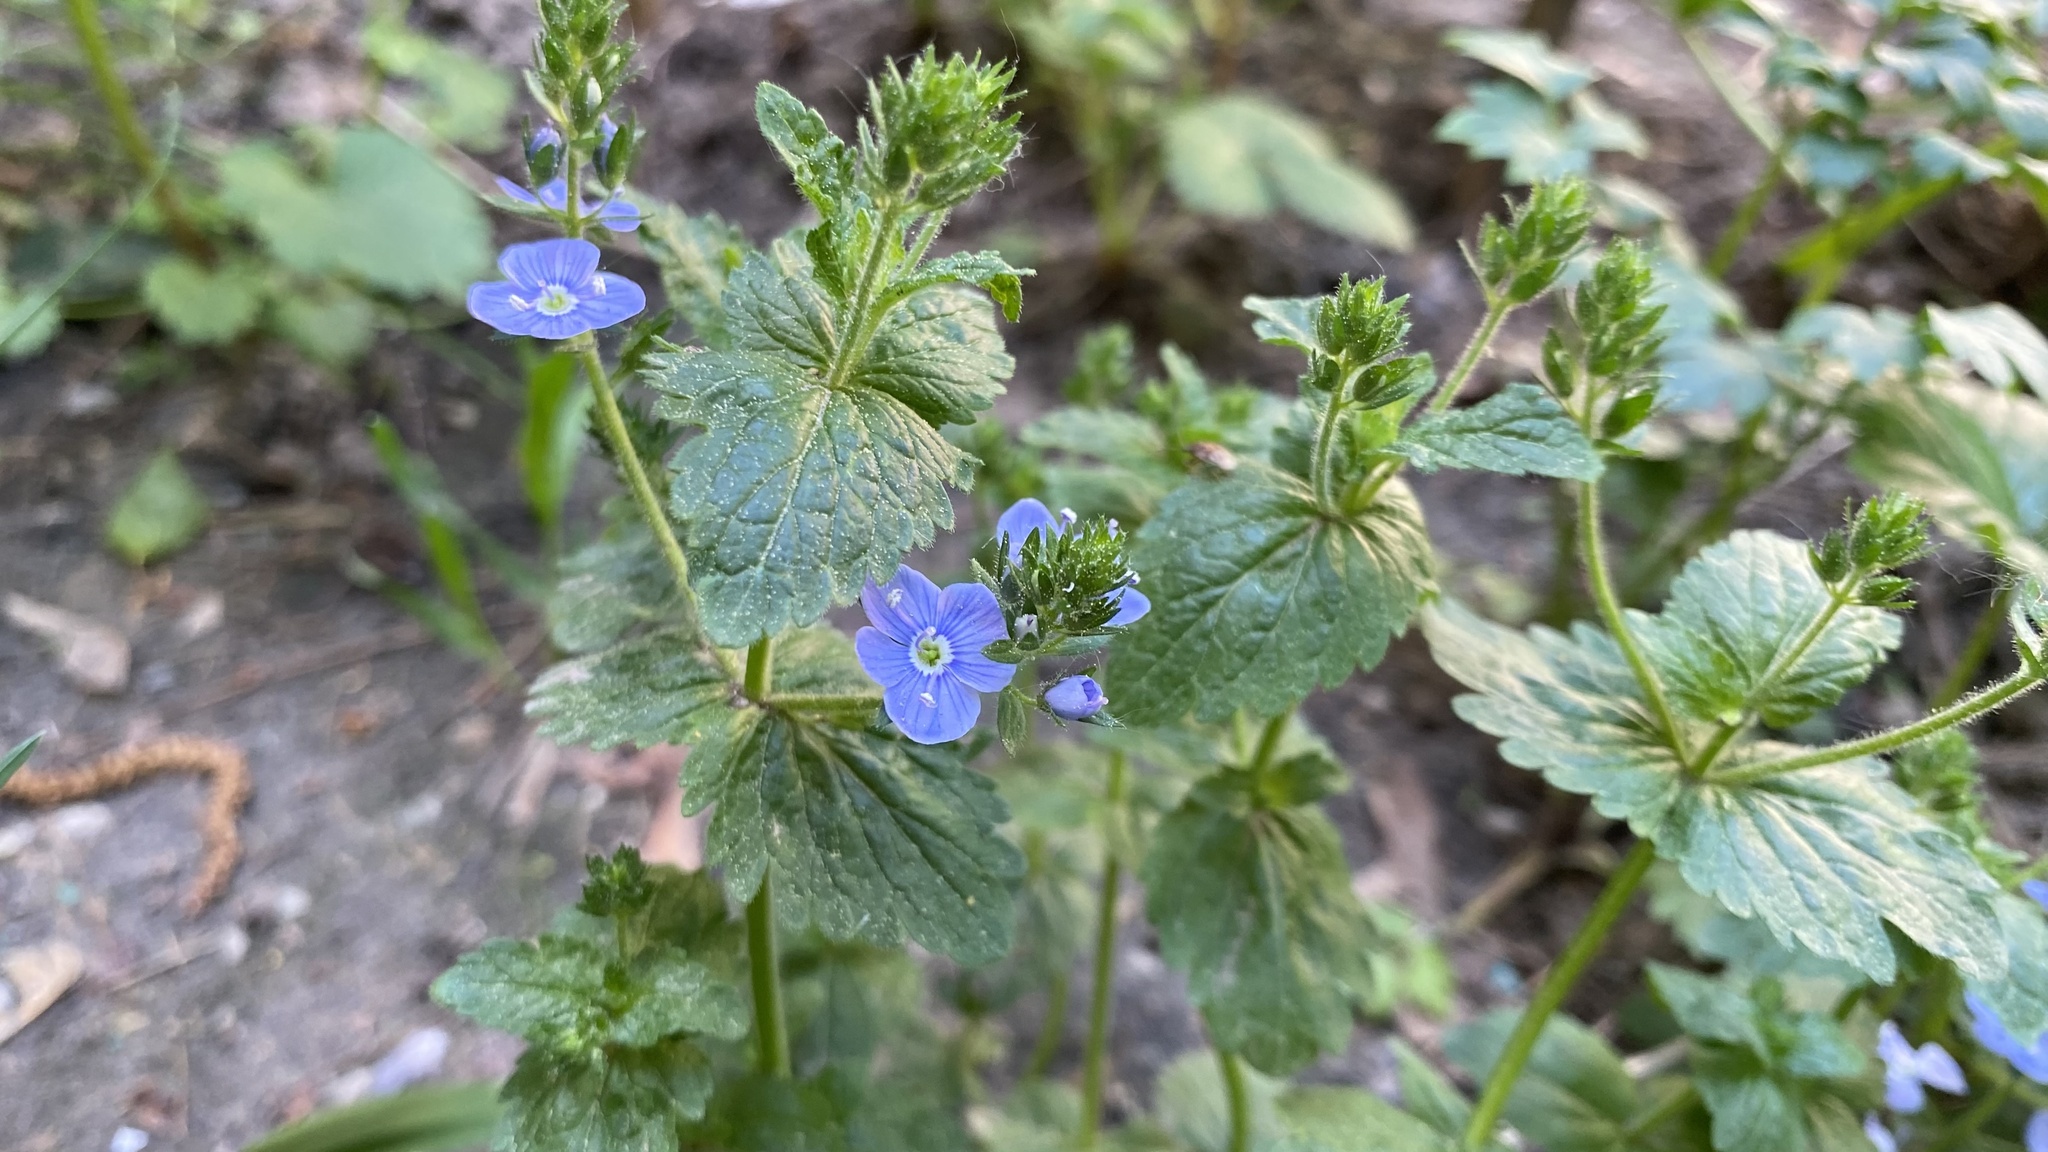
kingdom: Plantae
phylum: Tracheophyta
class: Magnoliopsida
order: Lamiales
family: Plantaginaceae
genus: Veronica
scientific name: Veronica chamaedrys
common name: Germander speedwell
